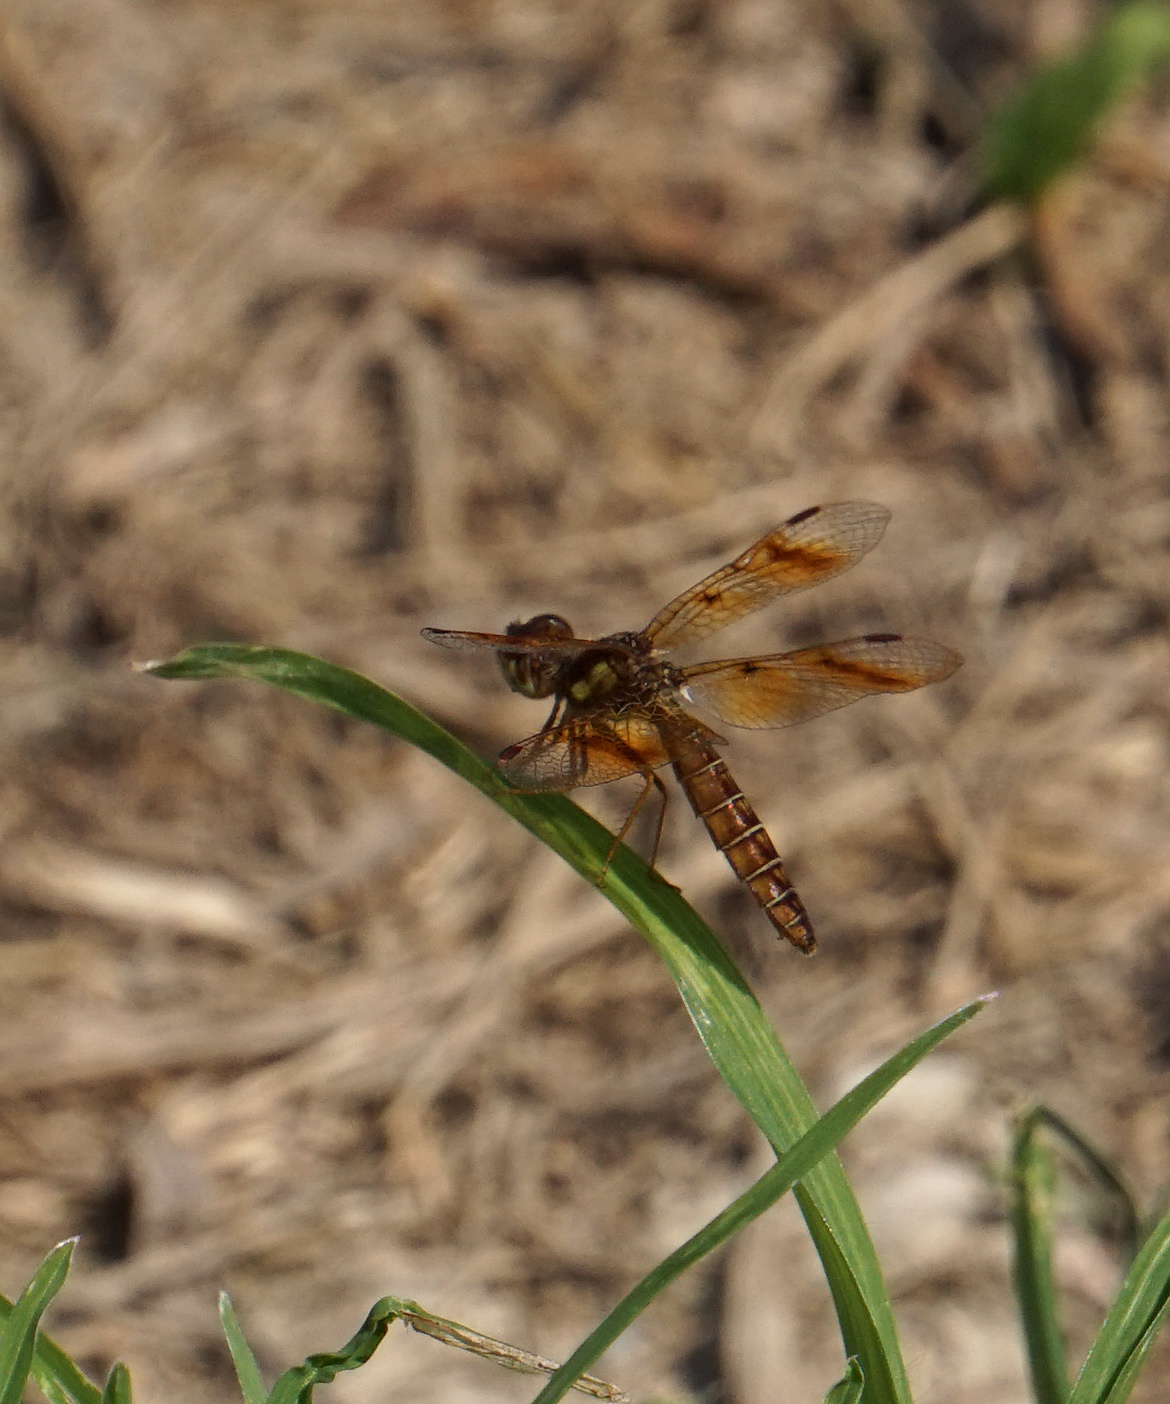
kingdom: Animalia
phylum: Arthropoda
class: Insecta
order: Odonata
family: Libellulidae
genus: Perithemis
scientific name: Perithemis tenera
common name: Eastern amberwing
